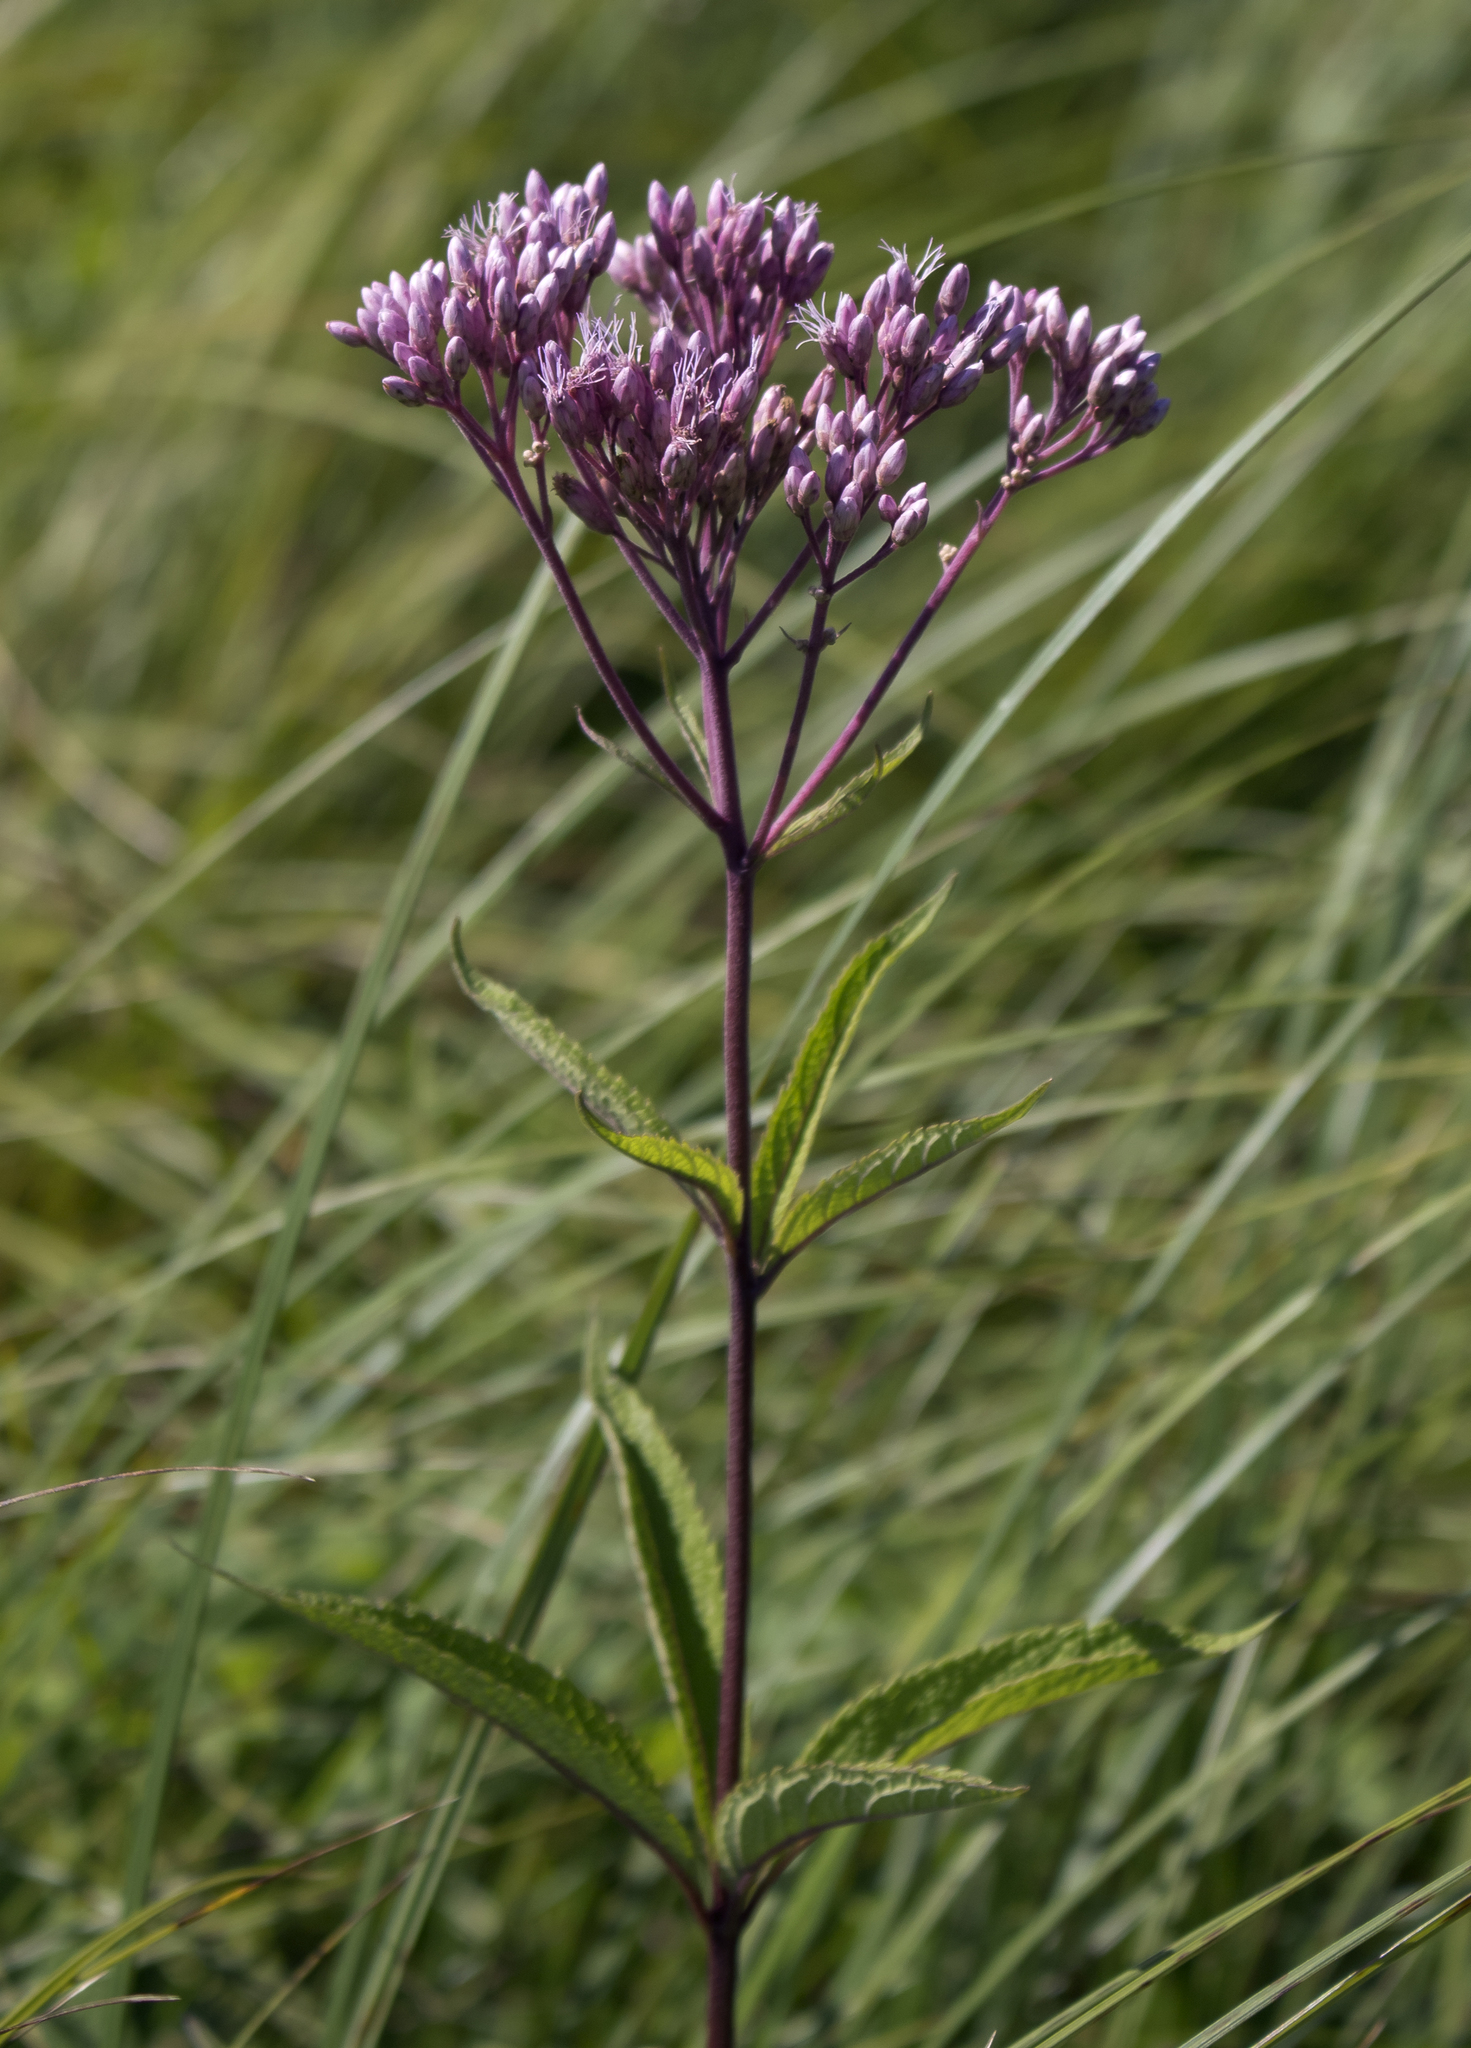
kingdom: Plantae
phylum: Tracheophyta
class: Magnoliopsida
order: Asterales
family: Asteraceae
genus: Eutrochium
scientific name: Eutrochium maculatum
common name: Spotted joe pye weed
